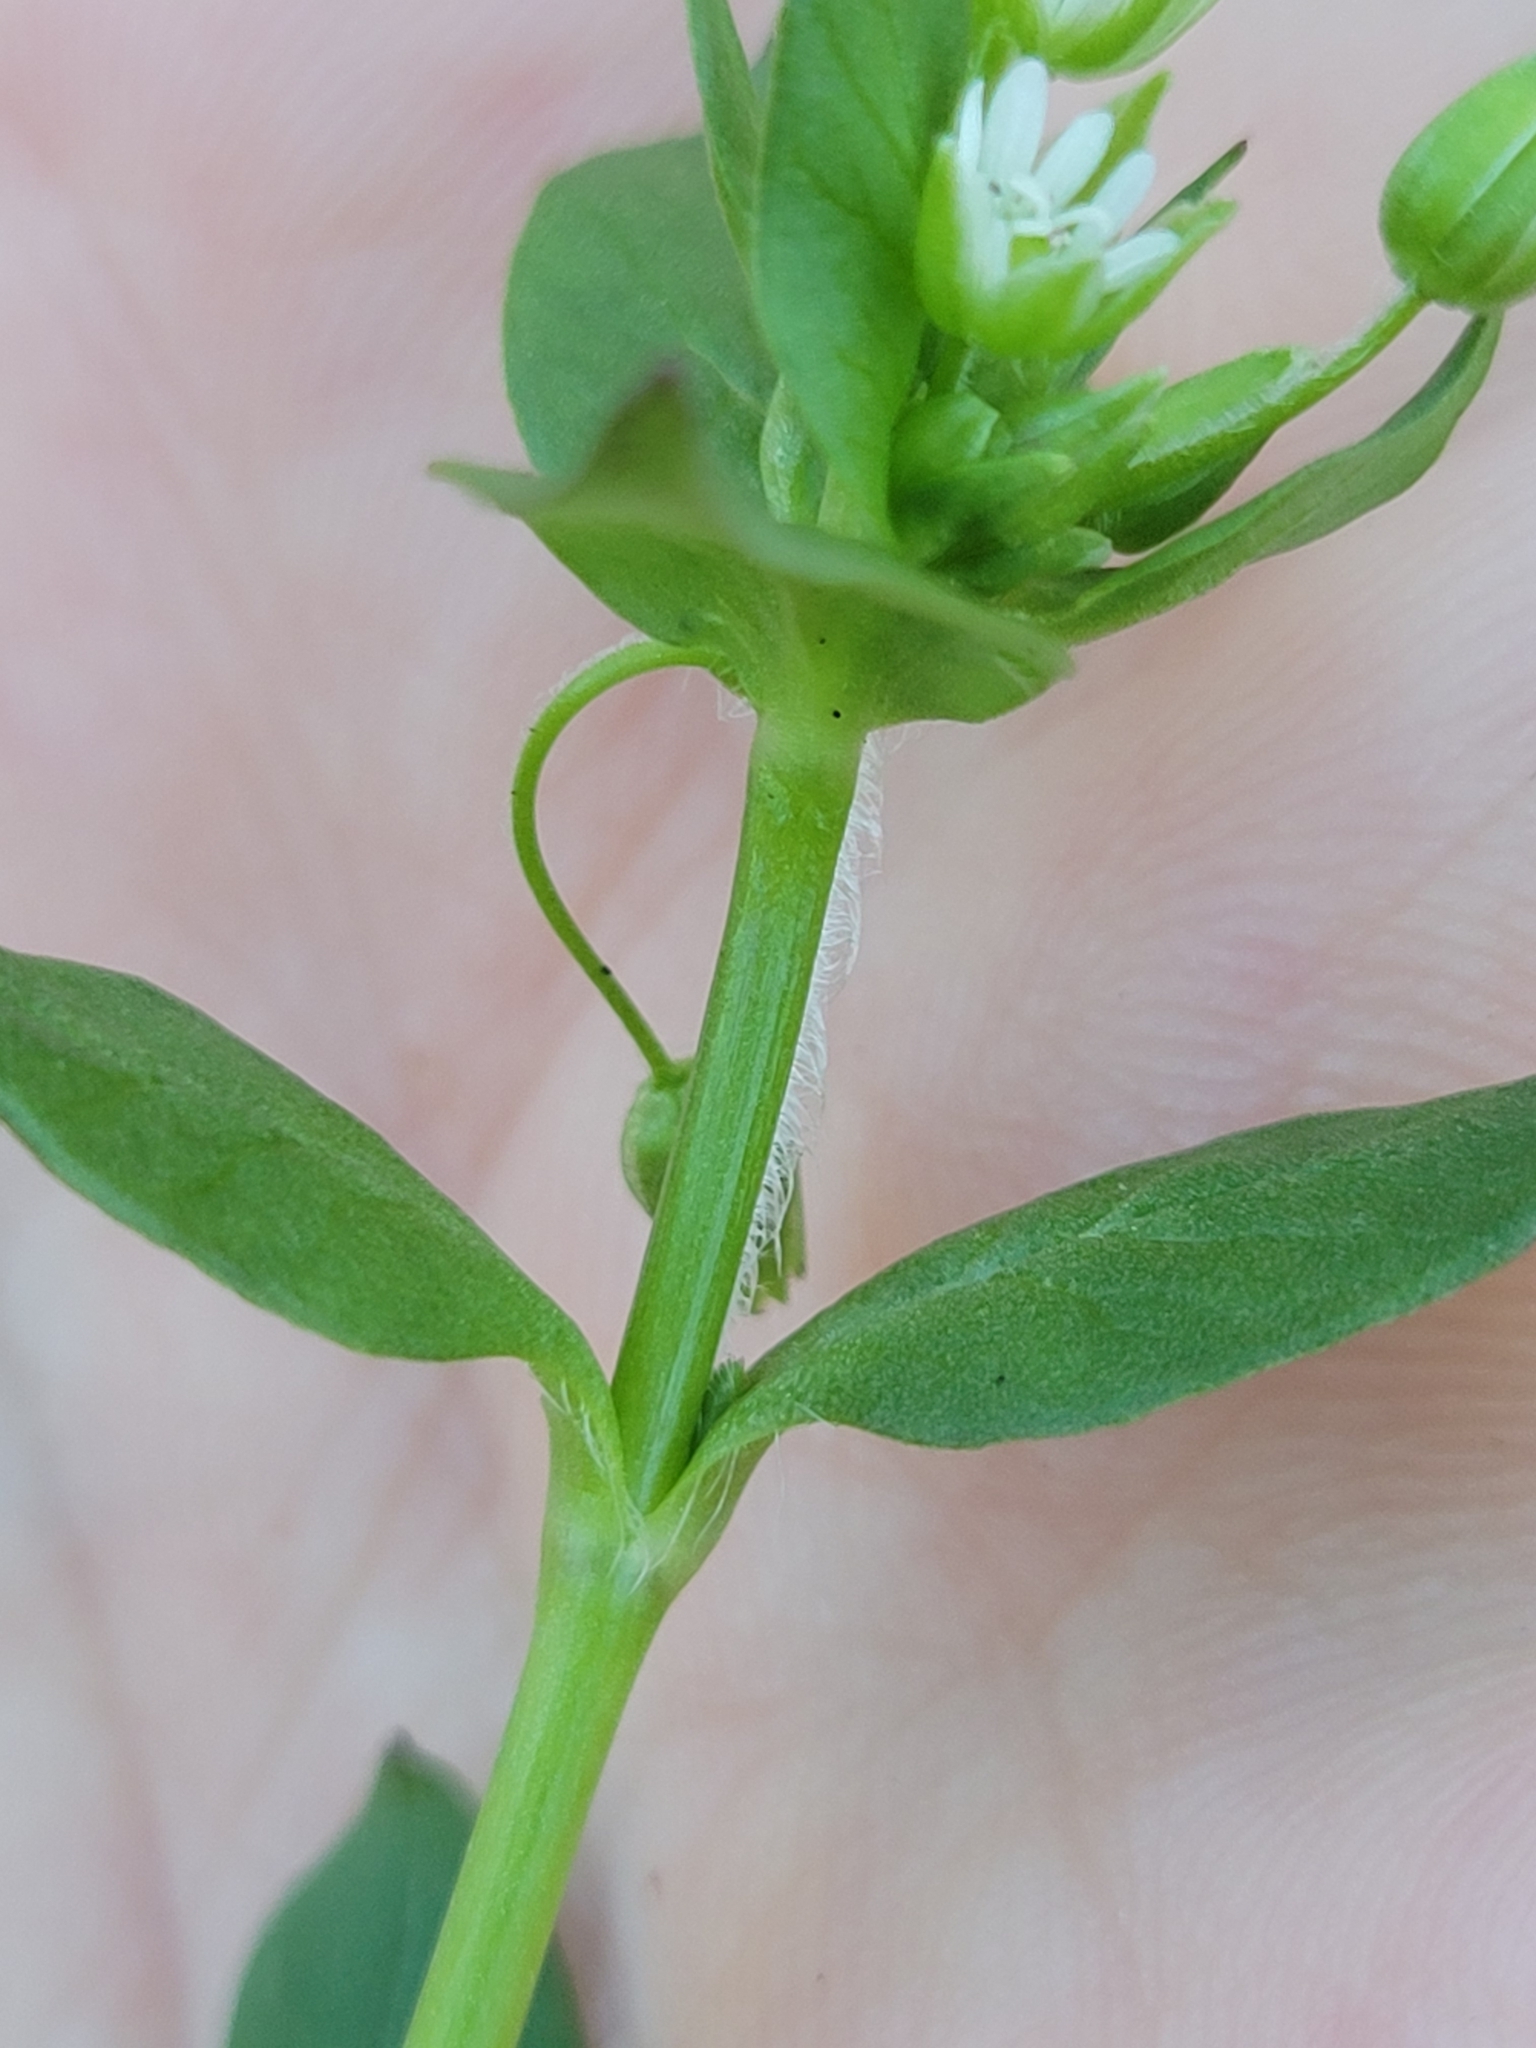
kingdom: Plantae
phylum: Tracheophyta
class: Magnoliopsida
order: Caryophyllales
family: Caryophyllaceae
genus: Stellaria
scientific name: Stellaria media
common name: Common chickweed
